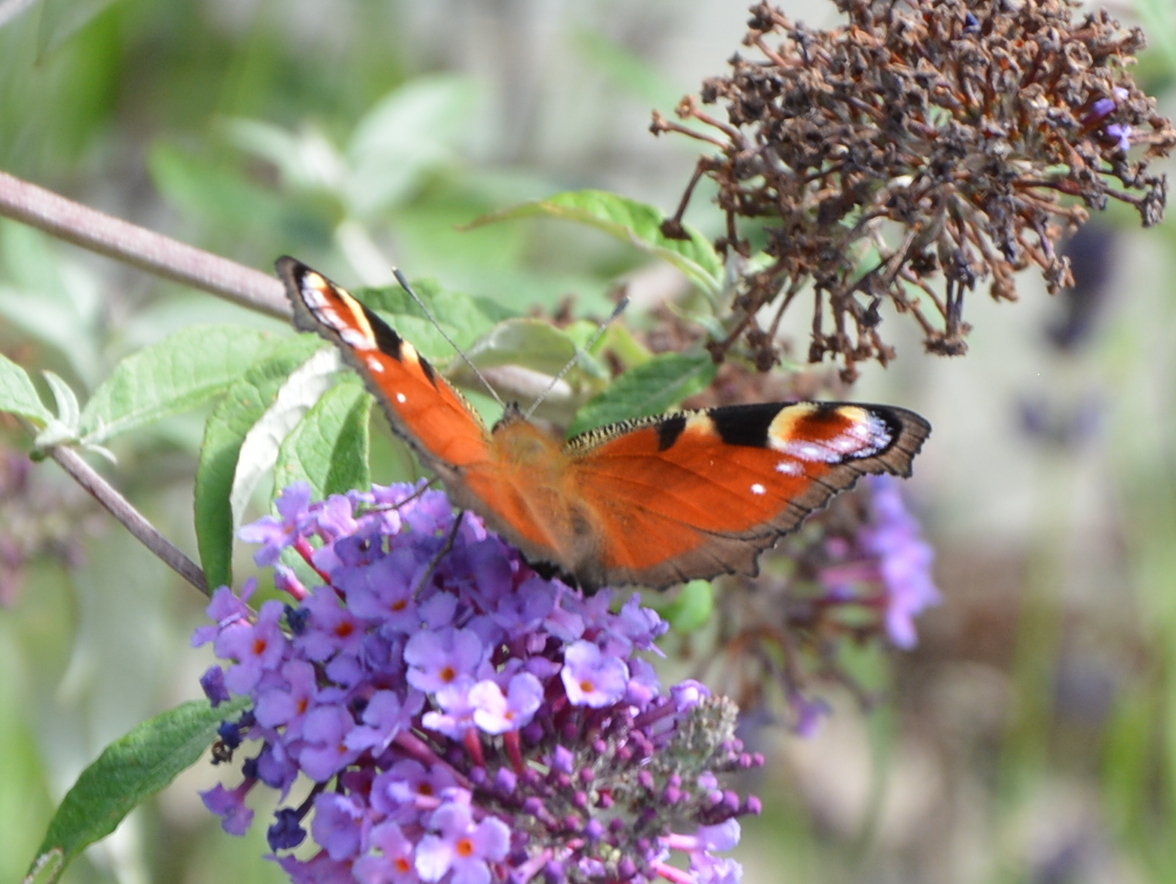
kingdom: Animalia
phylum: Arthropoda
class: Insecta
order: Lepidoptera
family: Nymphalidae
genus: Aglais
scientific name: Aglais io
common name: Peacock
